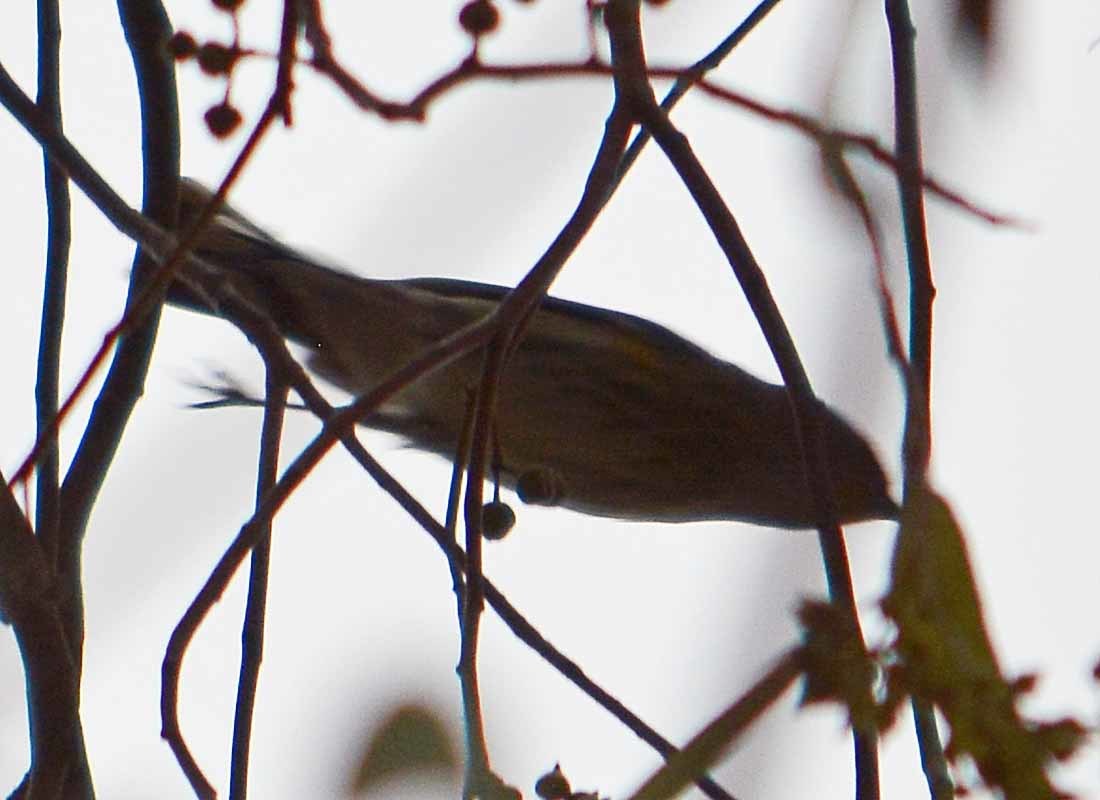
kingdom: Animalia
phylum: Chordata
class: Aves
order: Passeriformes
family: Parulidae
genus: Setophaga
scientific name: Setophaga coronata
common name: Myrtle warbler
